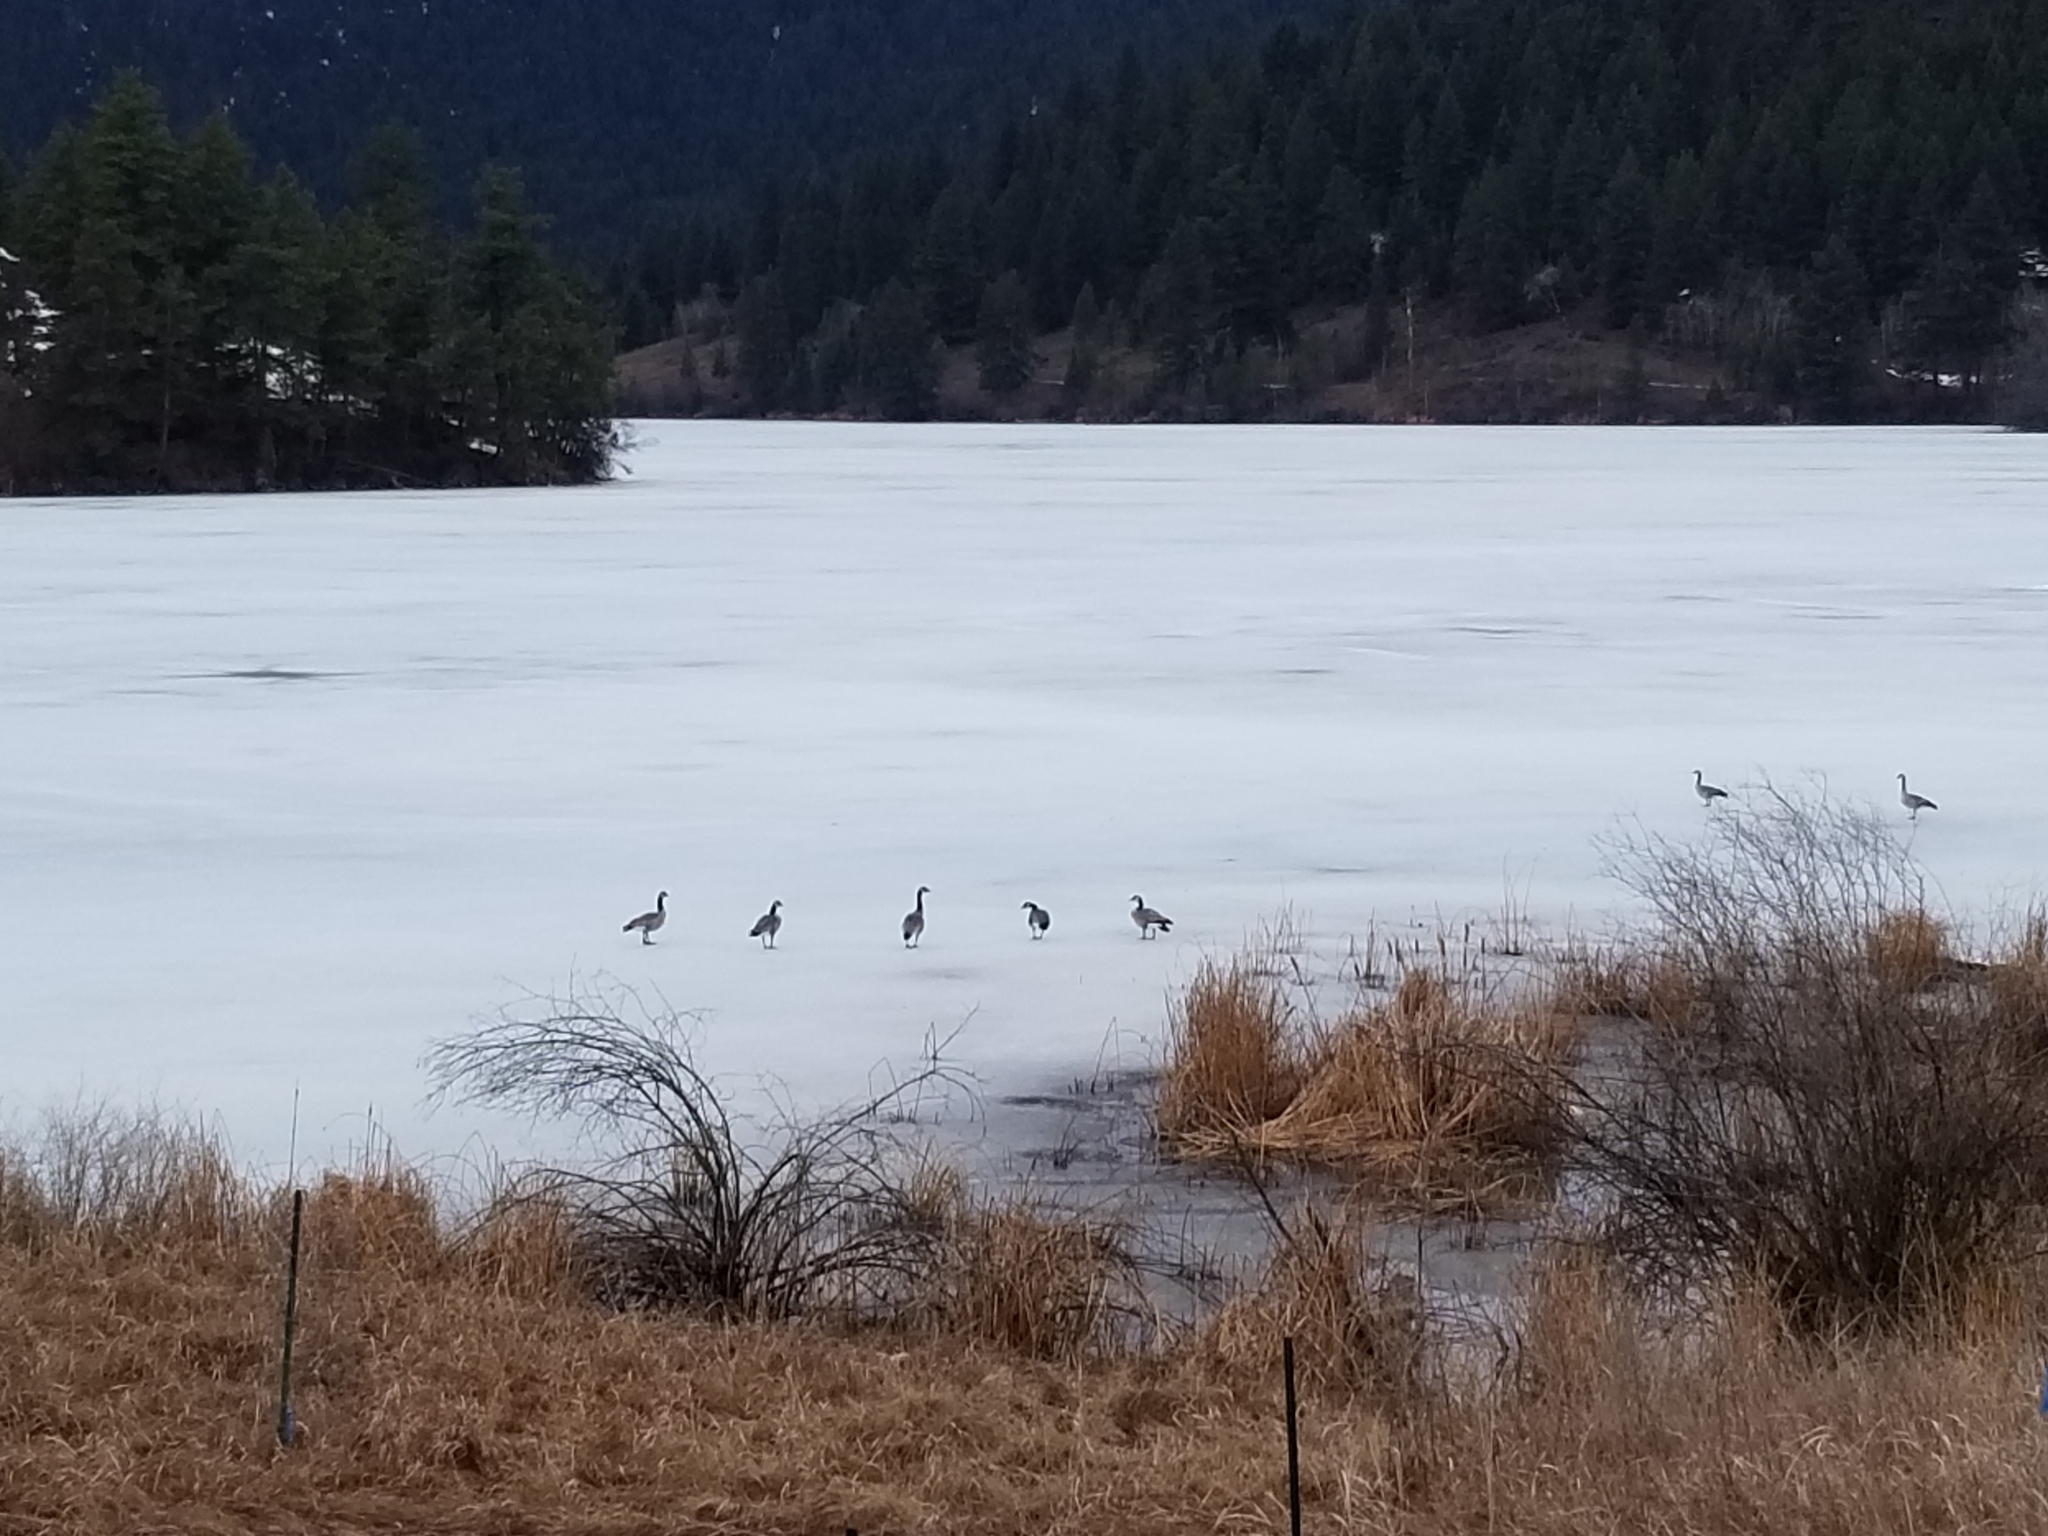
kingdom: Animalia
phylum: Chordata
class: Aves
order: Anseriformes
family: Anatidae
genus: Branta
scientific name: Branta canadensis
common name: Canada goose
